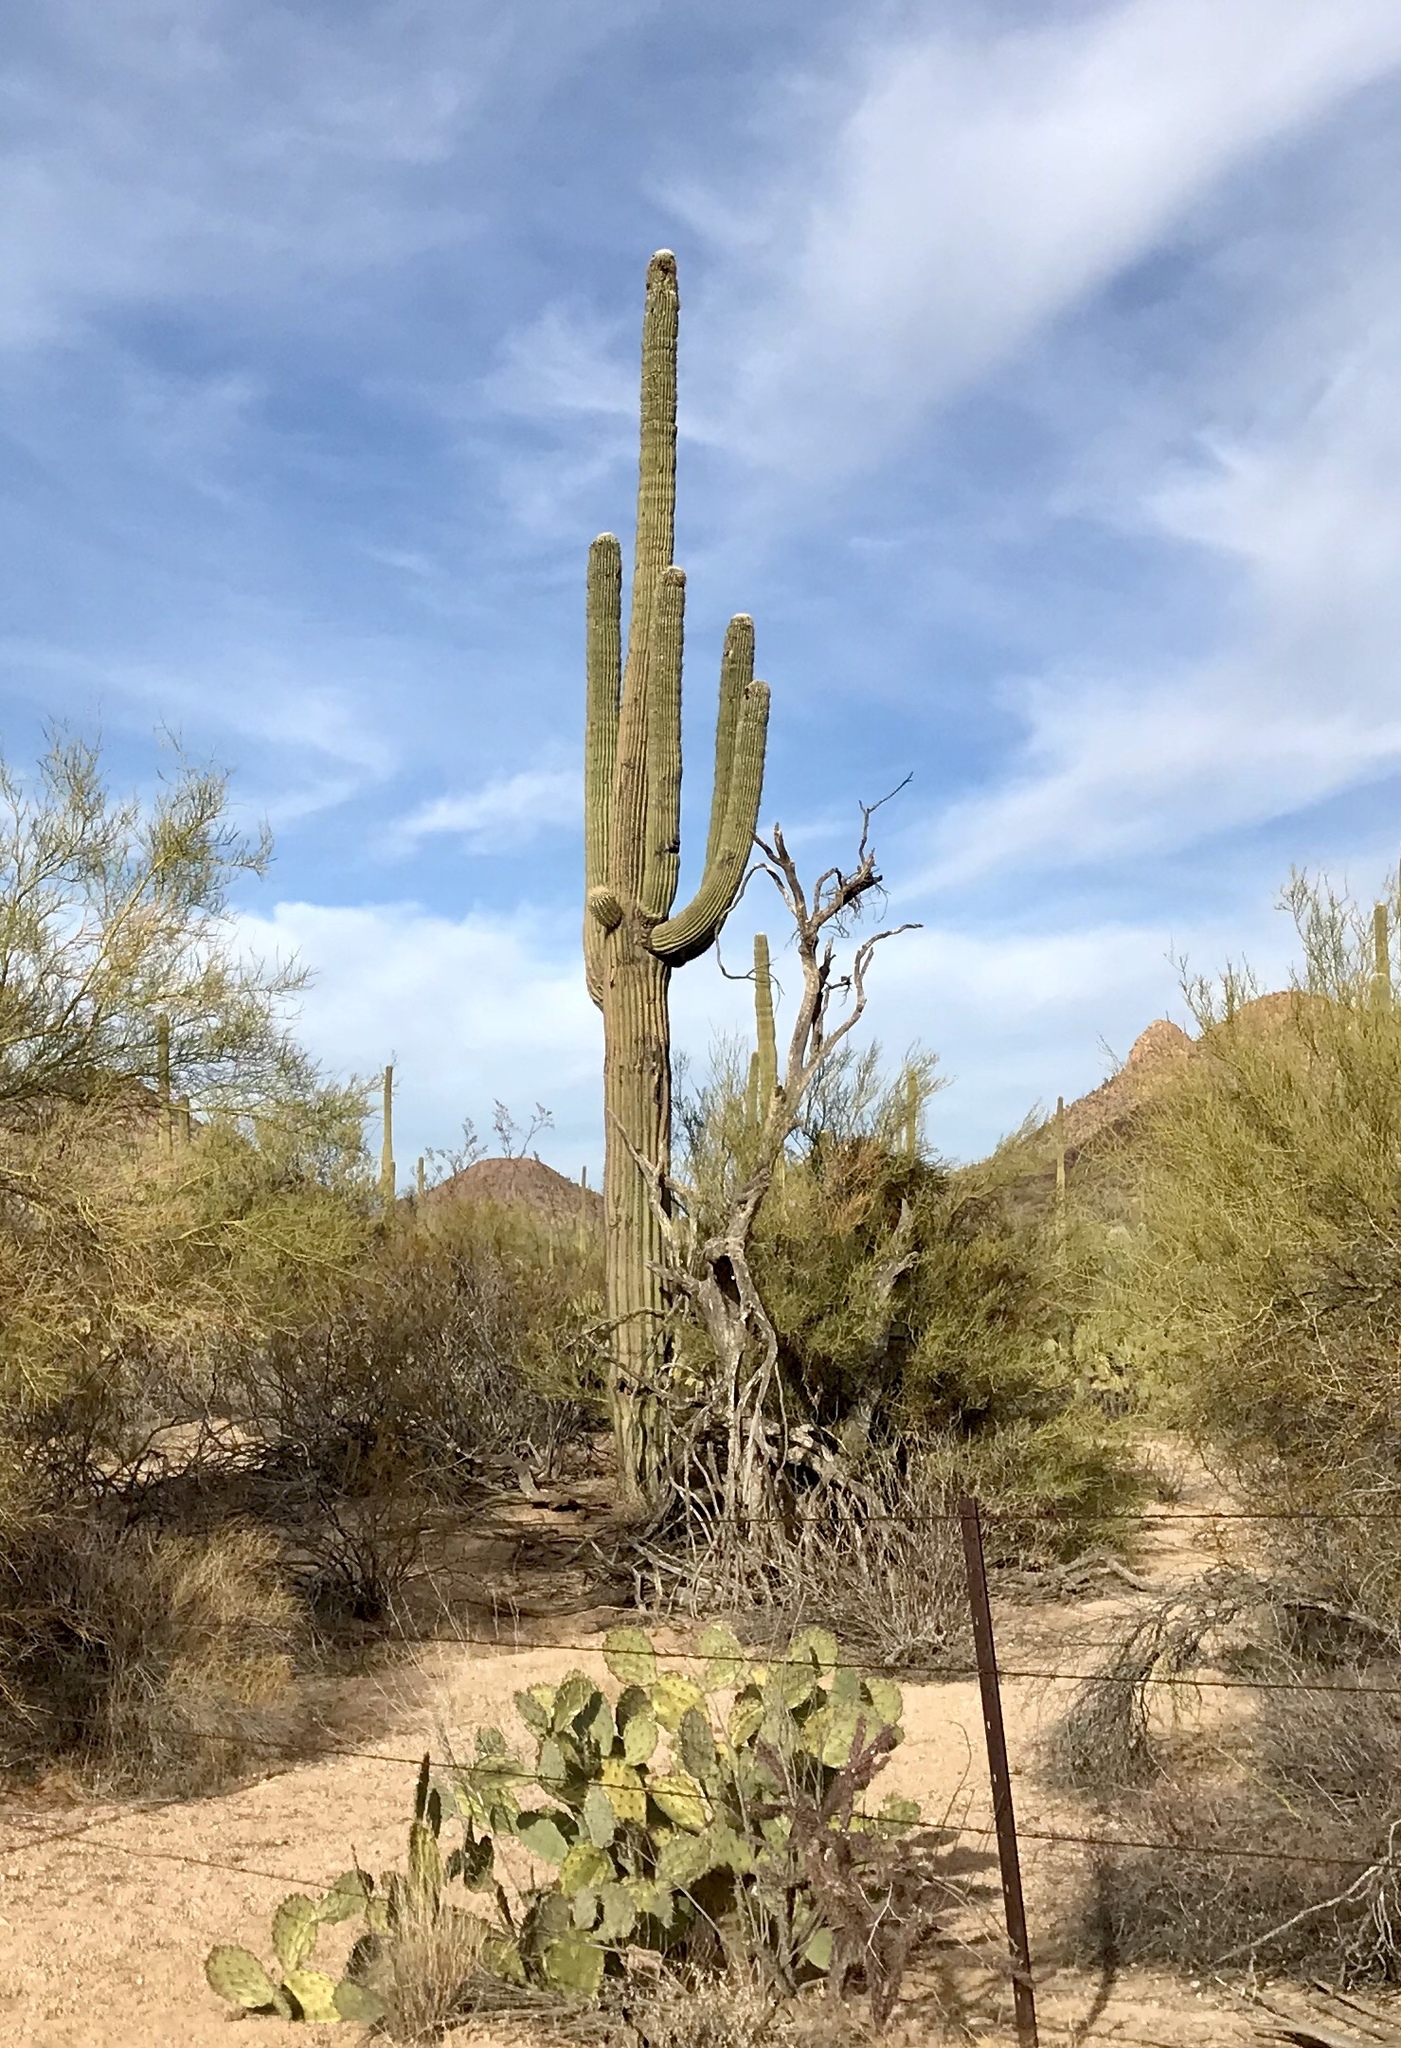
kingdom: Plantae
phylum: Tracheophyta
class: Magnoliopsida
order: Caryophyllales
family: Cactaceae
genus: Carnegiea
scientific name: Carnegiea gigantea
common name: Saguaro
